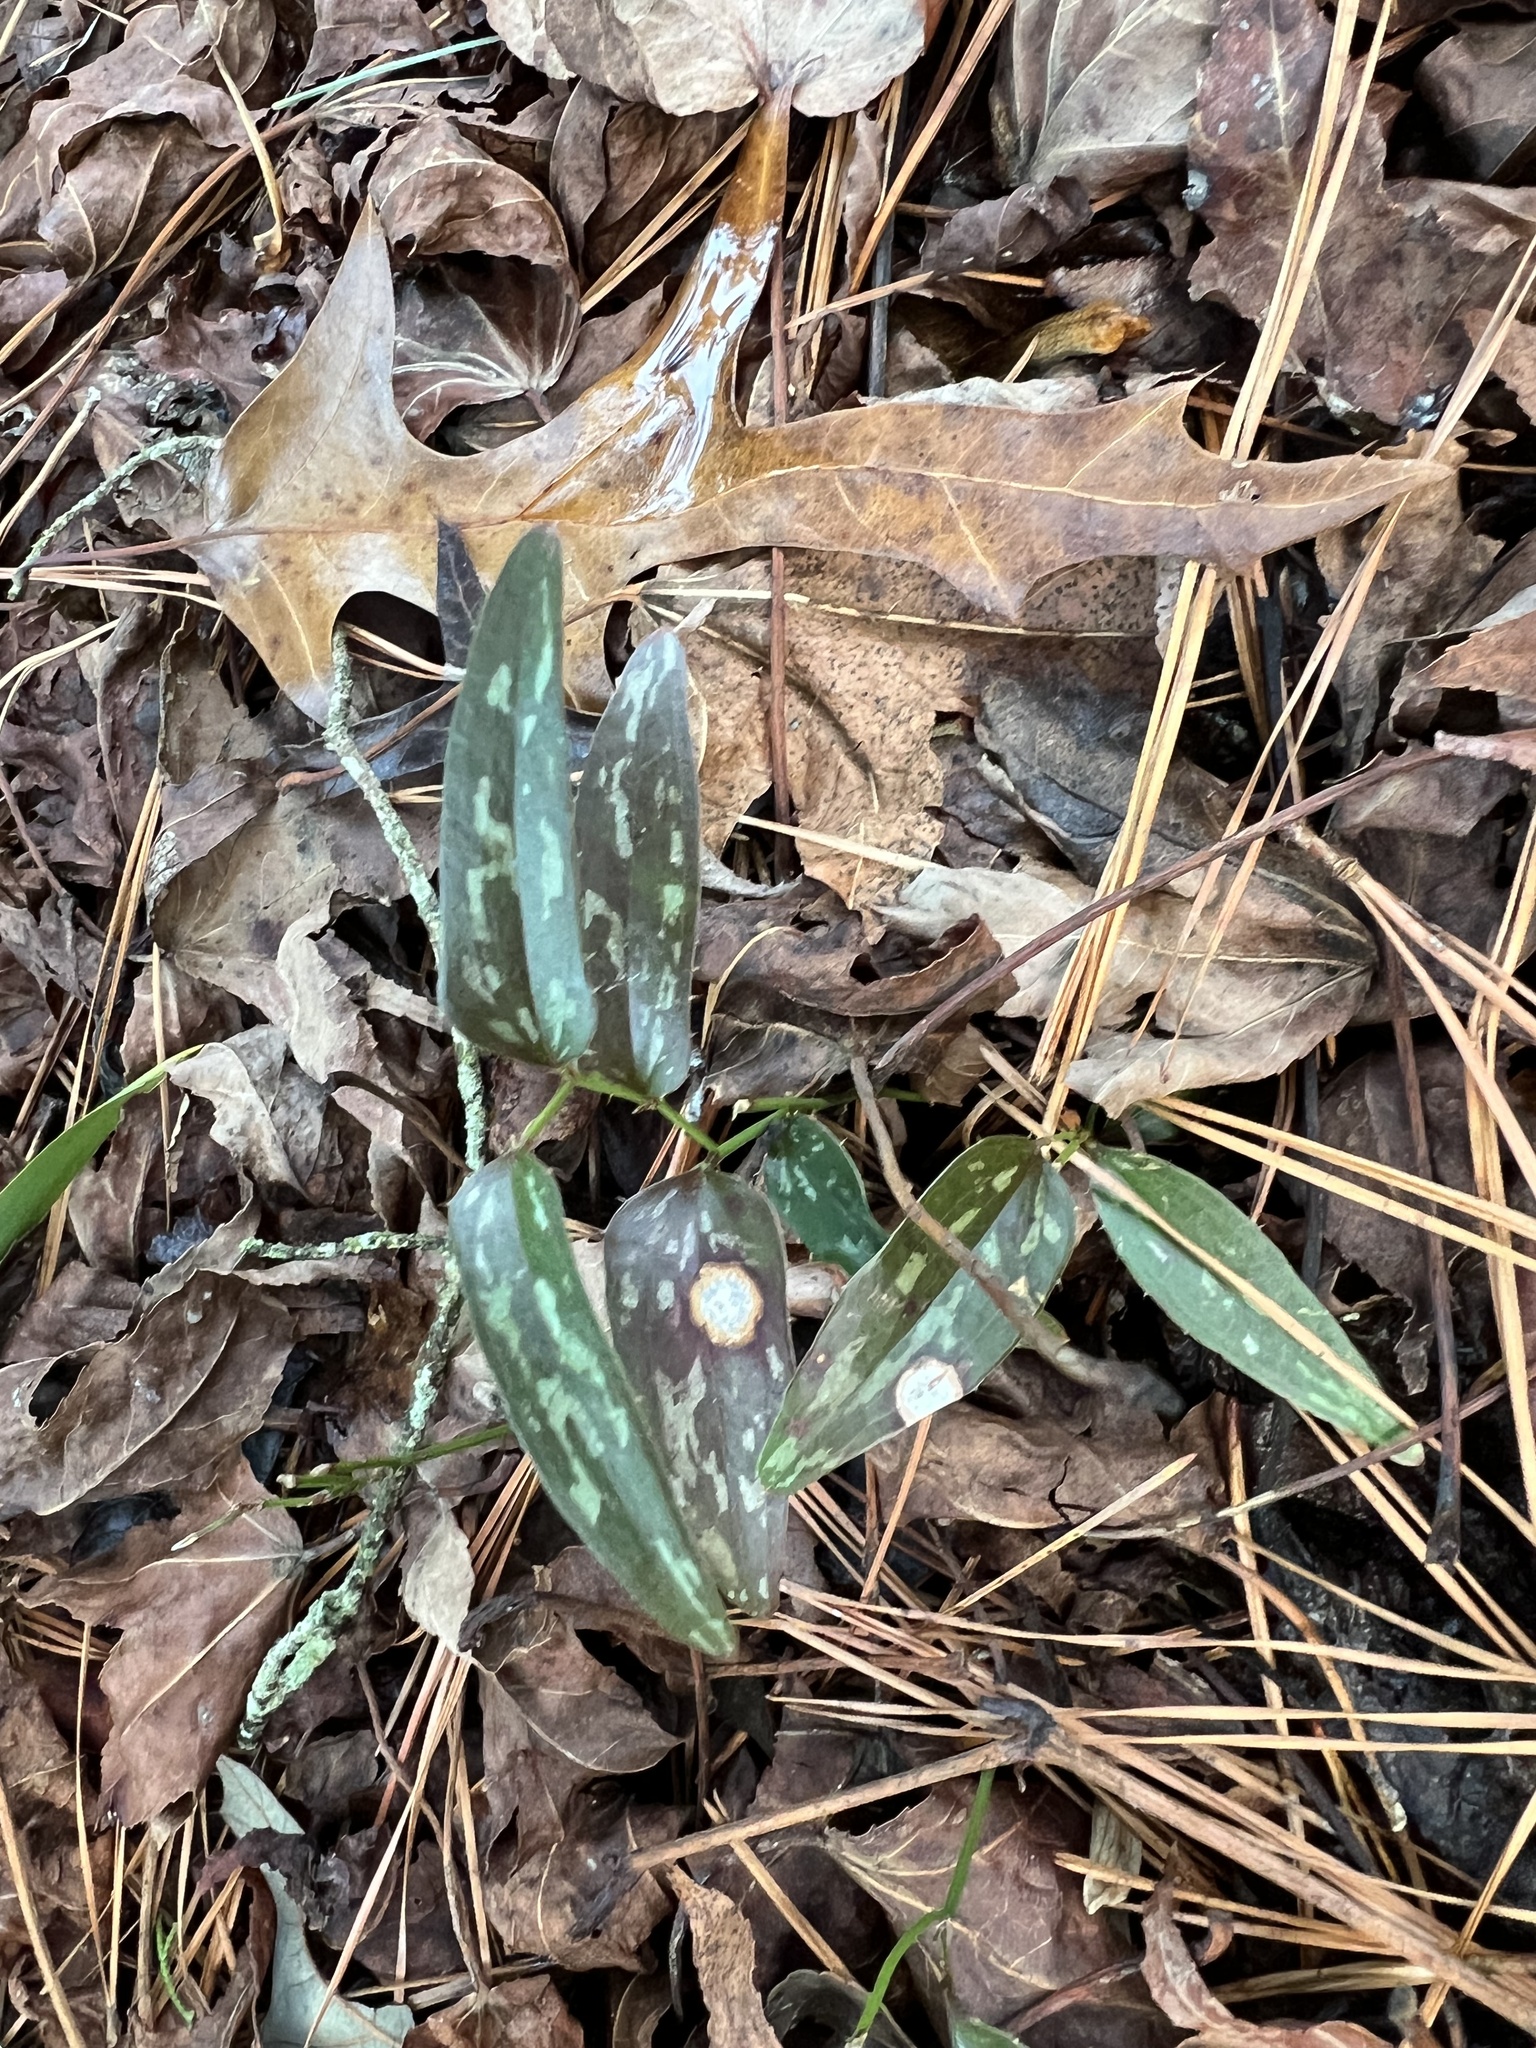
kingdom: Plantae
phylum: Tracheophyta
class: Liliopsida
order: Liliales
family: Smilacaceae
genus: Smilax
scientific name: Smilax bona-nox
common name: Catbrier
